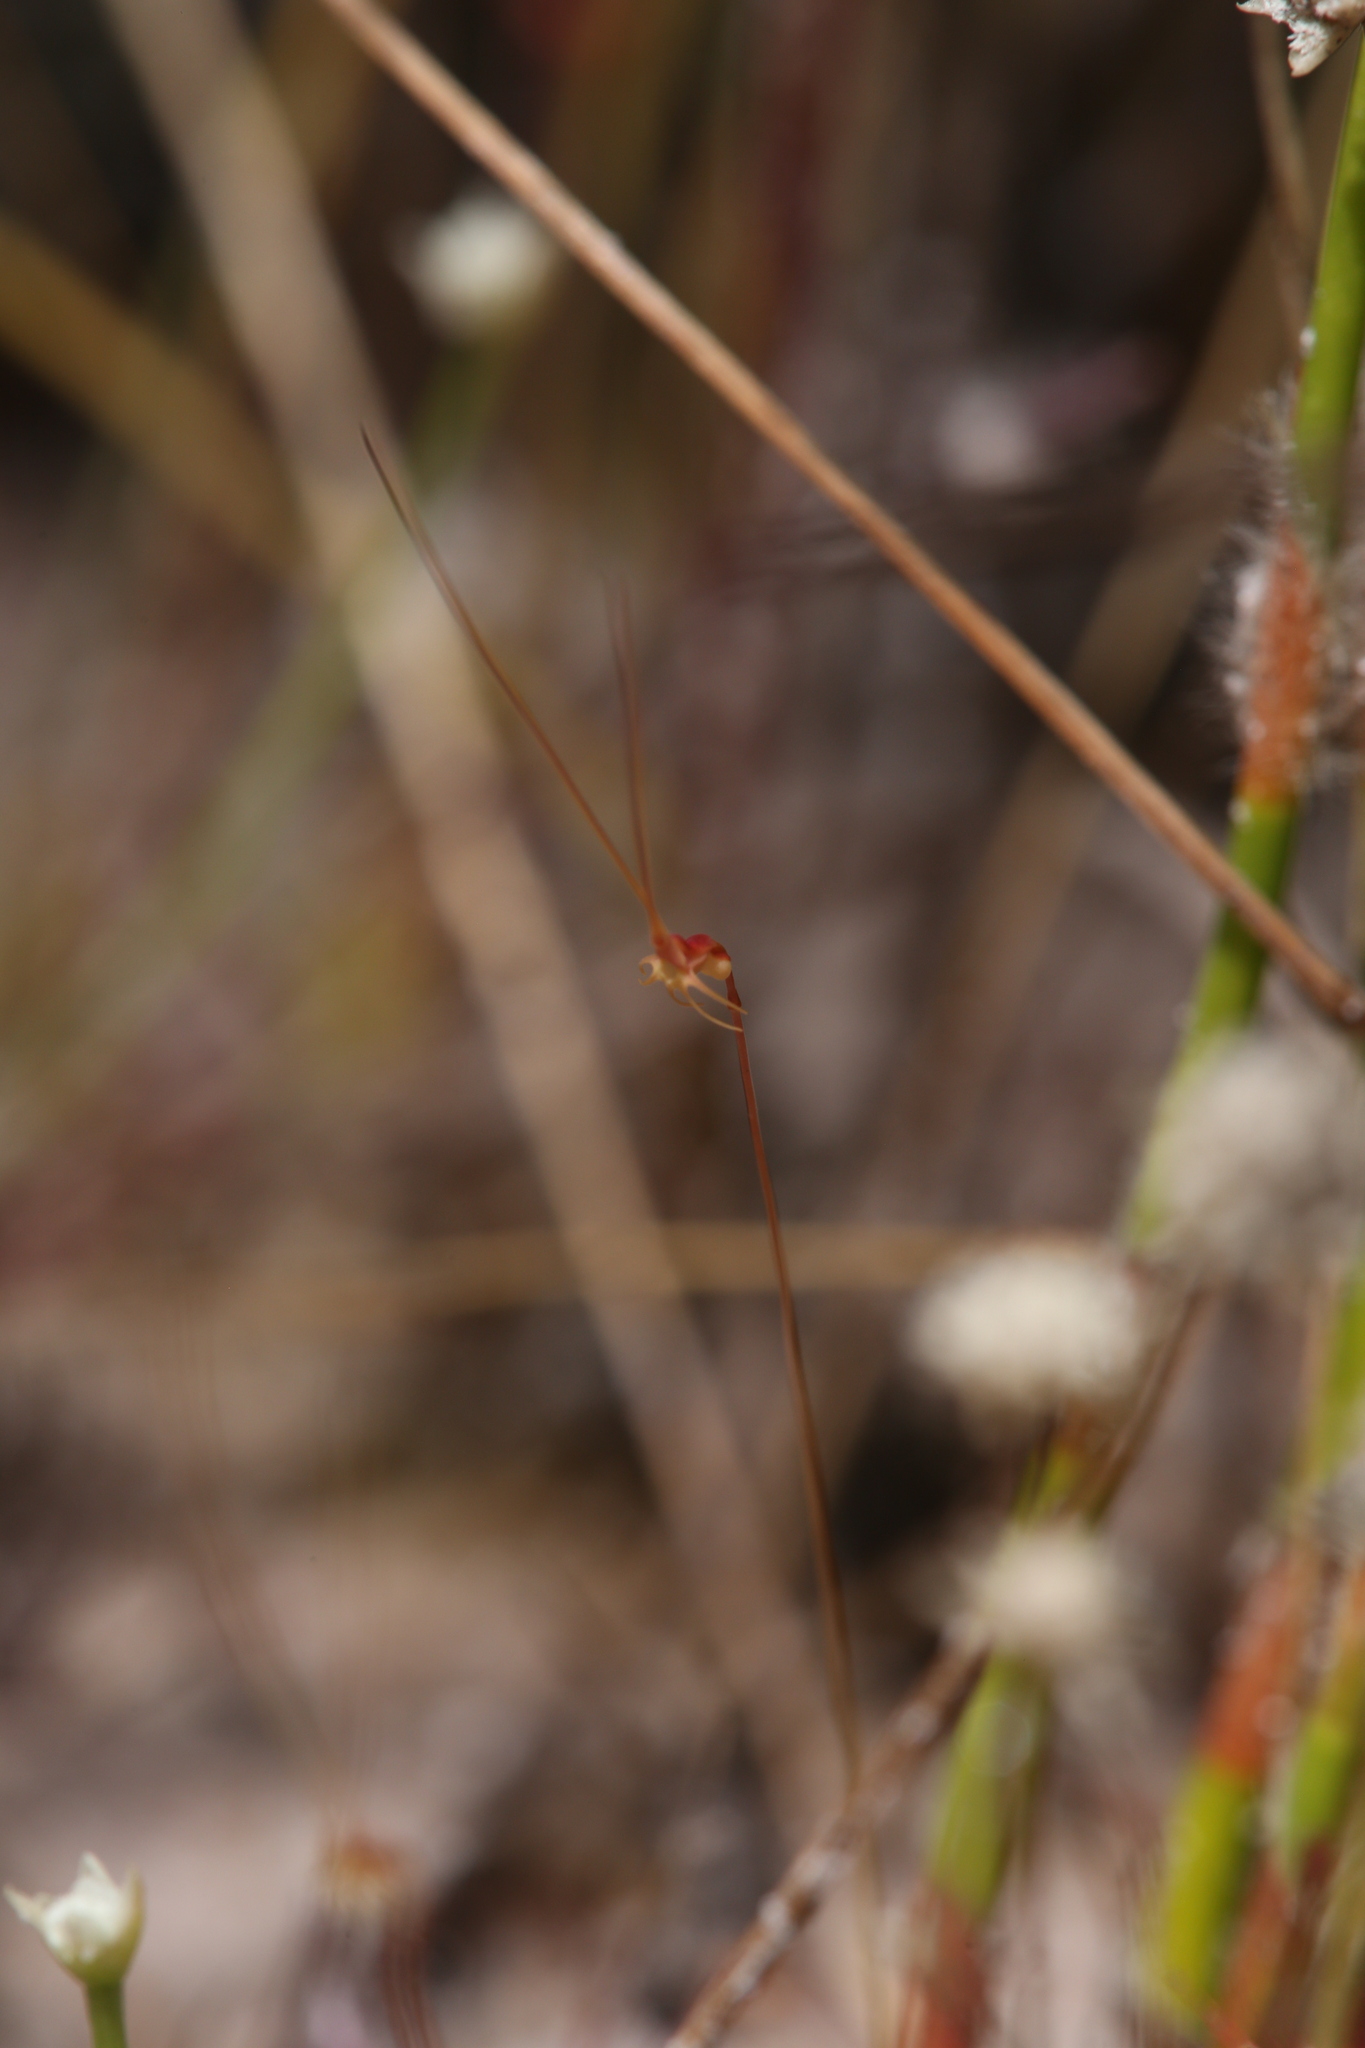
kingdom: Plantae
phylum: Tracheophyta
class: Magnoliopsida
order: Lamiales
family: Lentibulariaceae
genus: Utricularia
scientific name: Utricularia capilliflora
